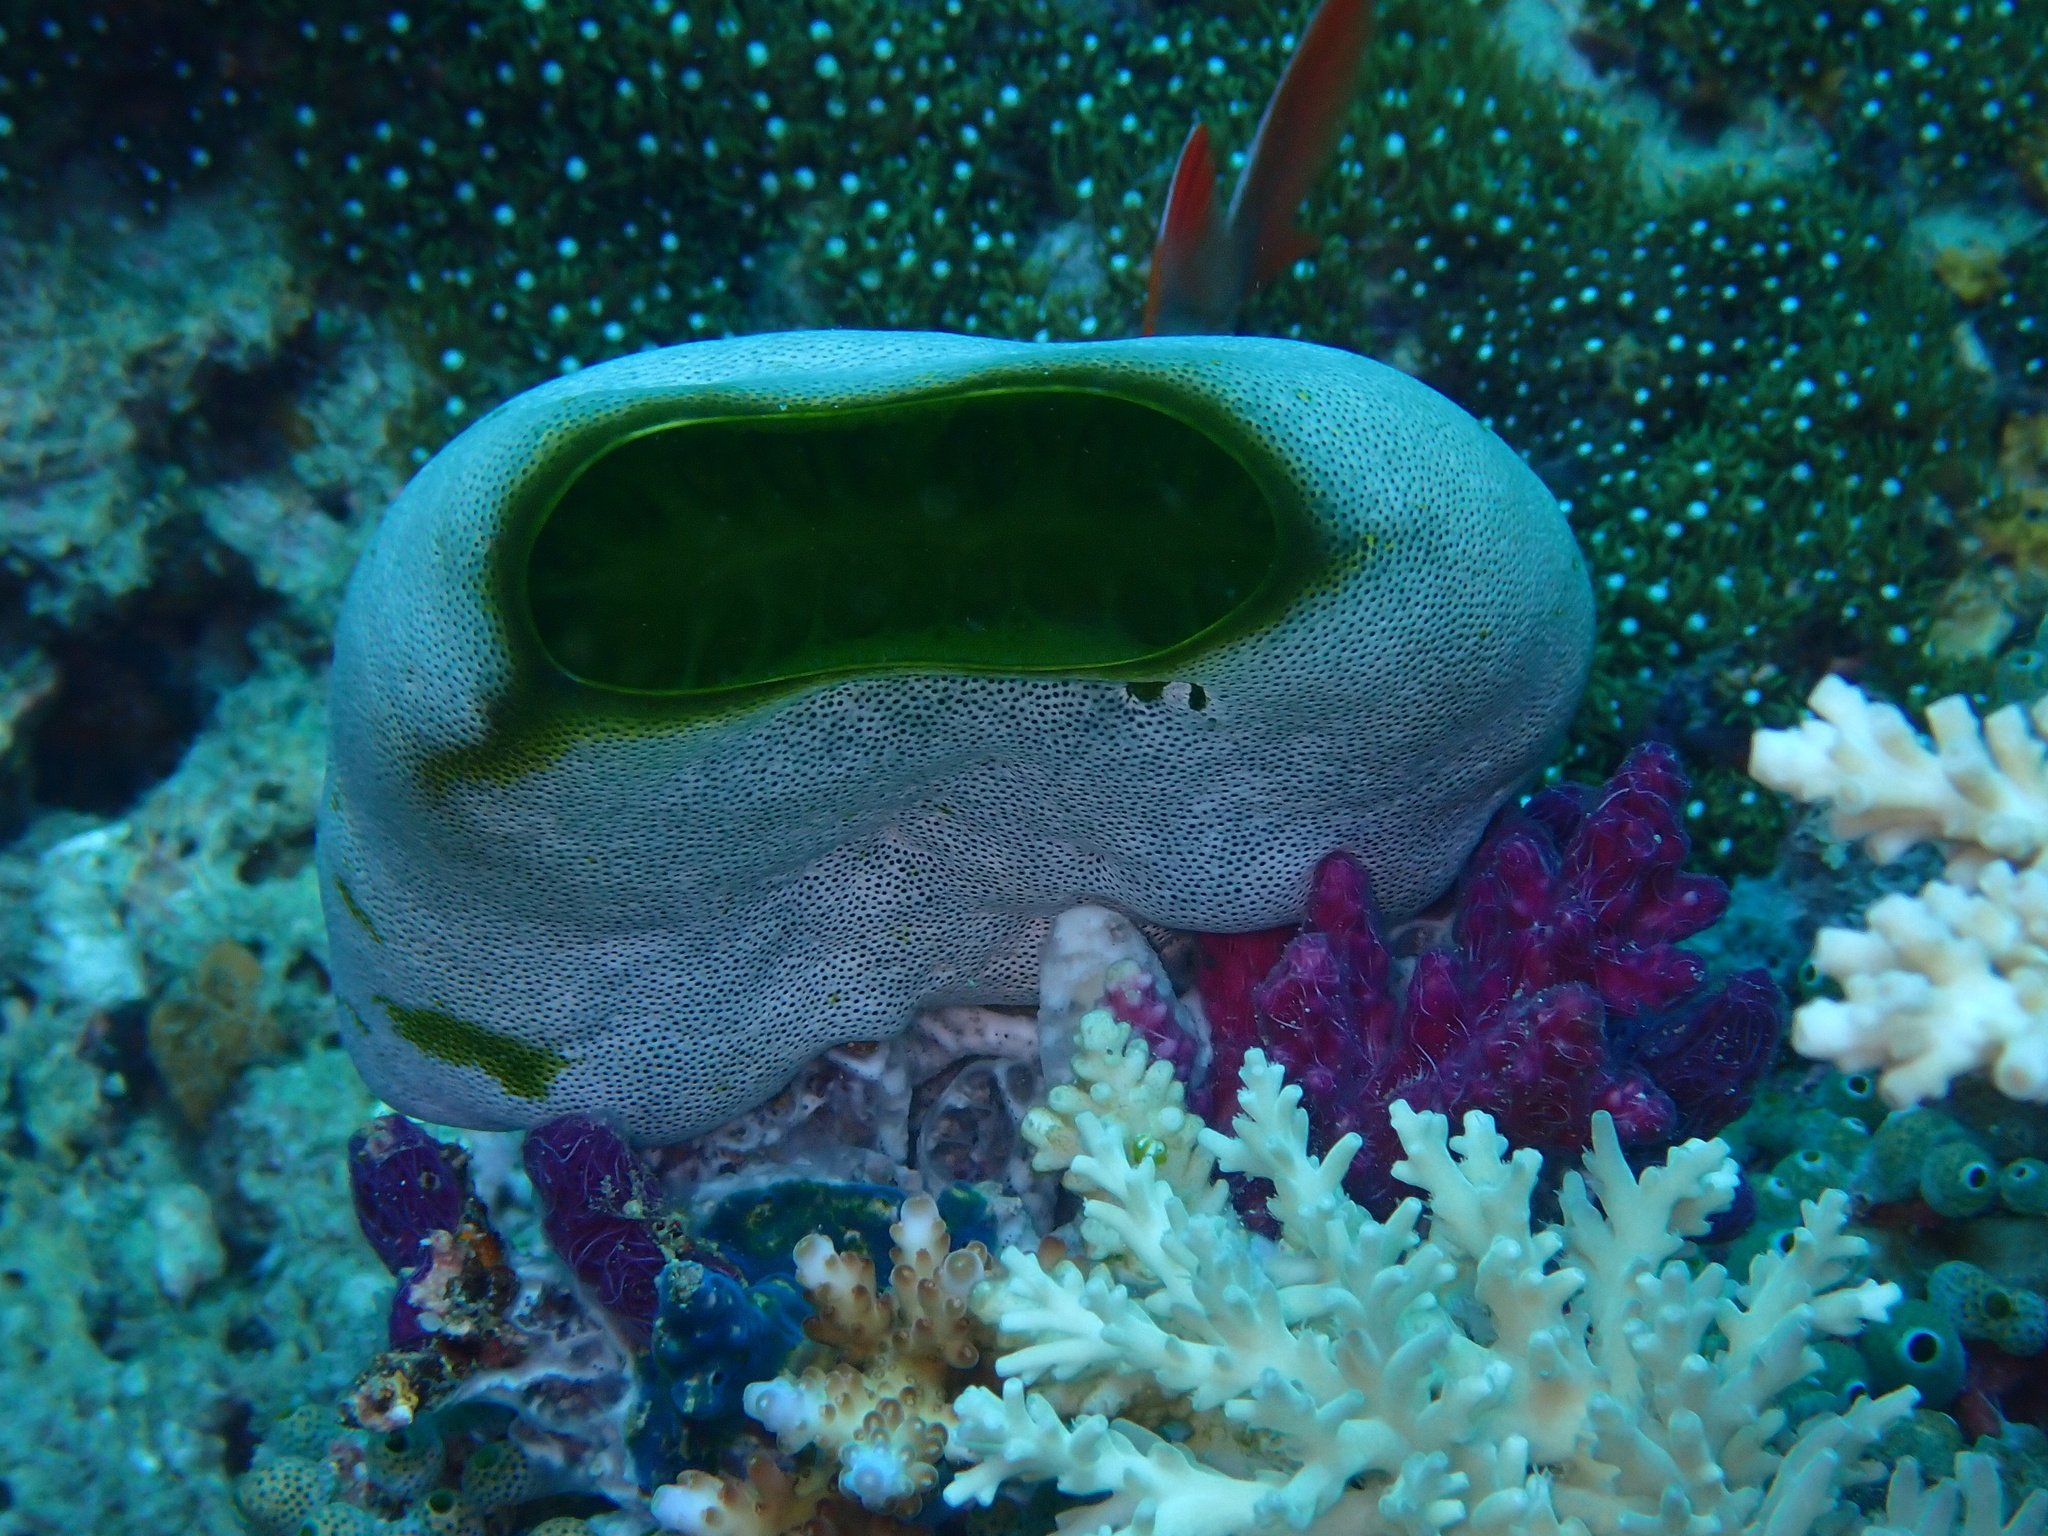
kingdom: Animalia
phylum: Chordata
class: Ascidiacea
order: Aplousobranchia
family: Didemnidae
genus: Didemnum
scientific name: Didemnum molle
